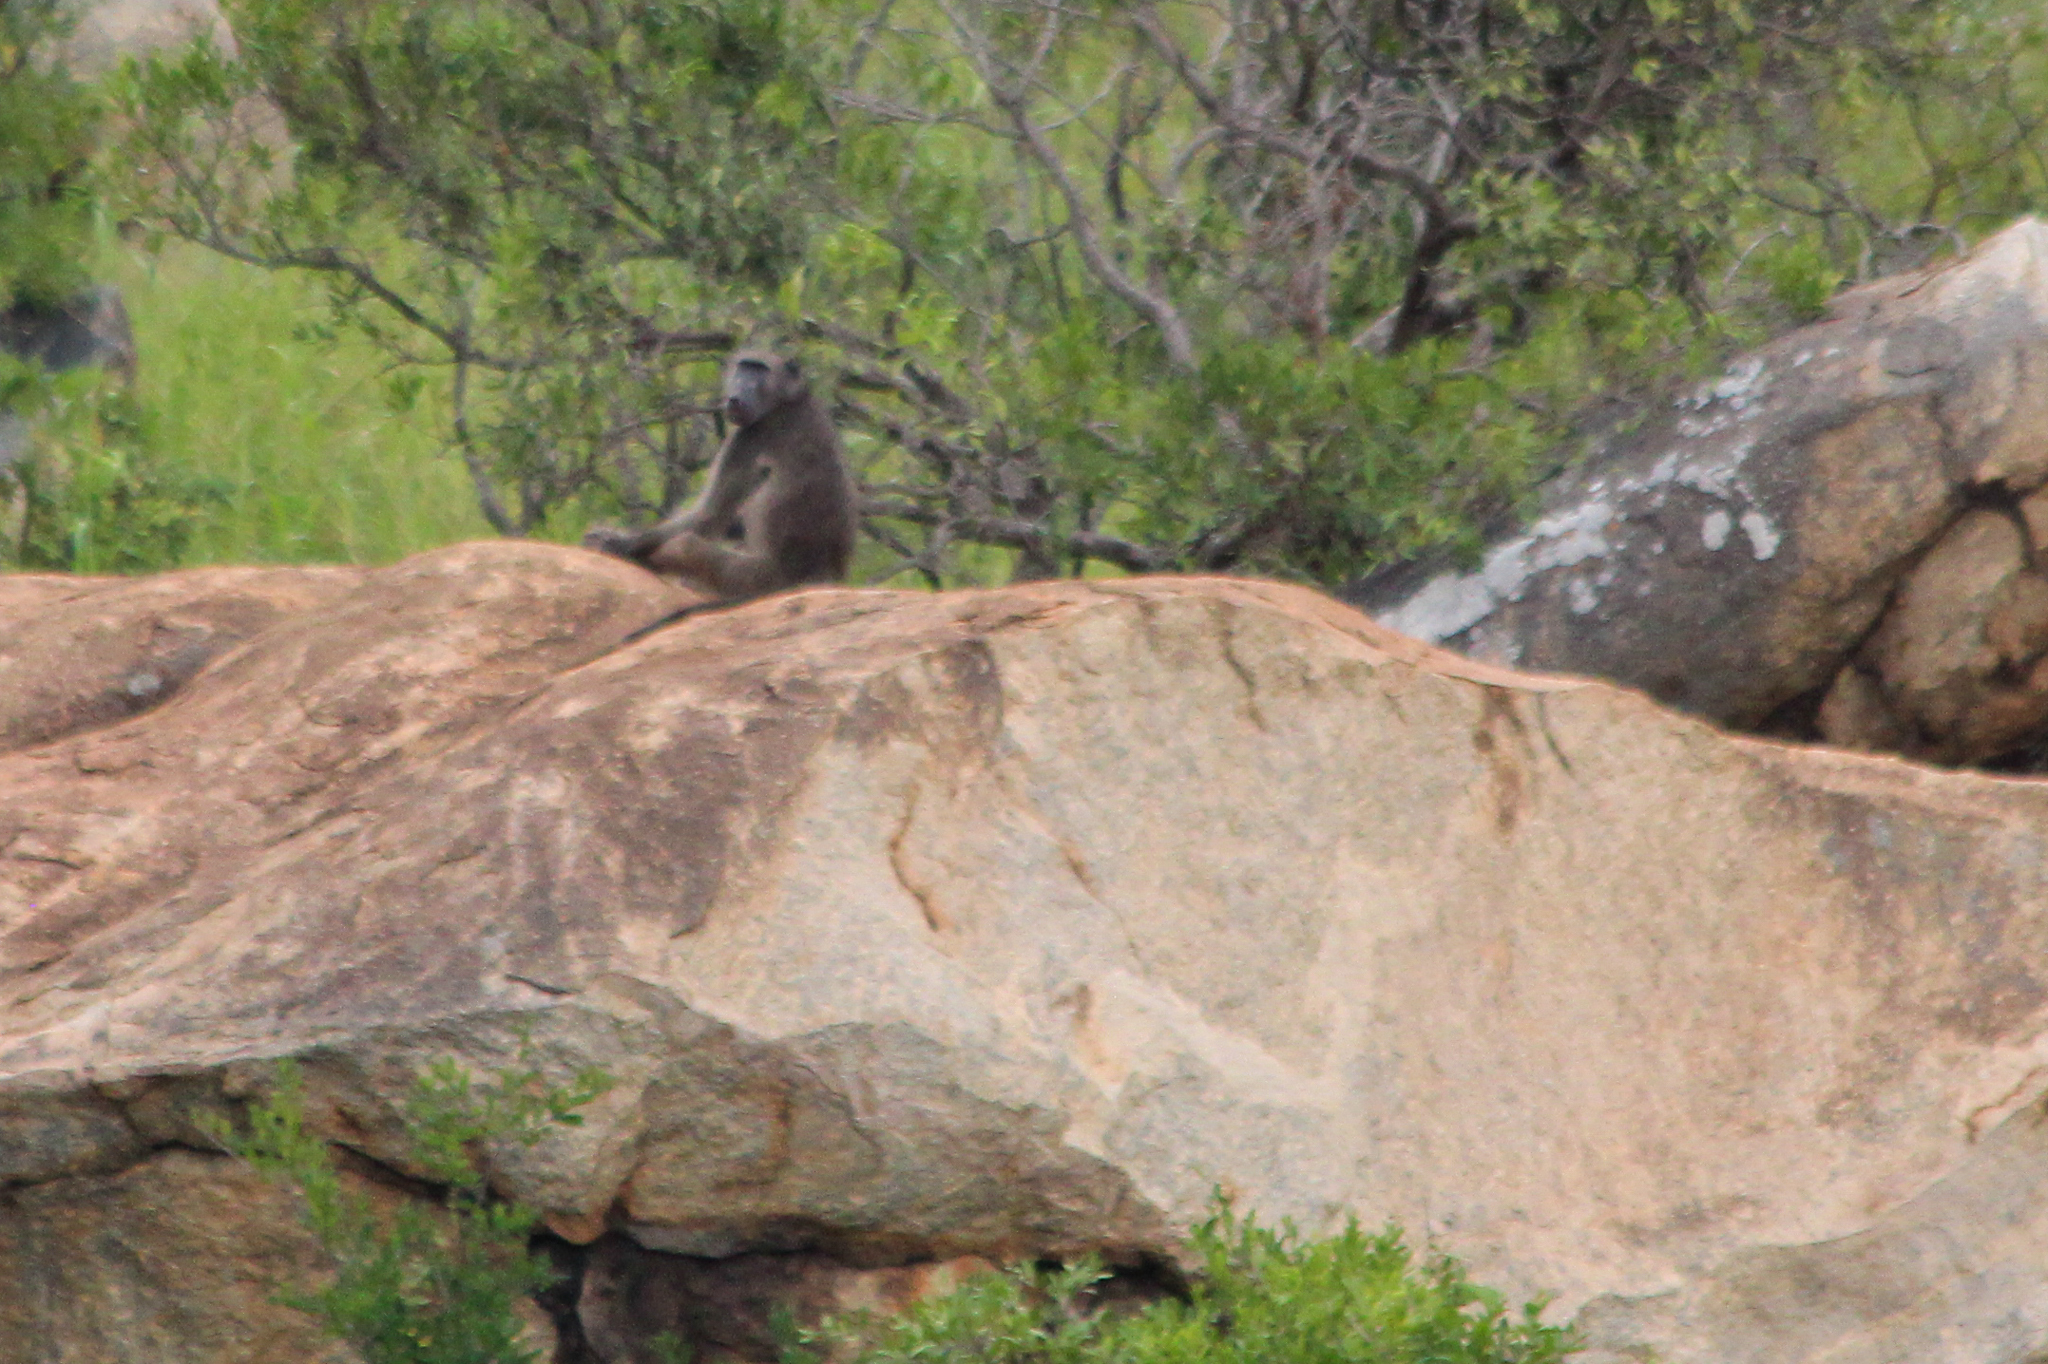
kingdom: Animalia
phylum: Chordata
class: Mammalia
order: Primates
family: Cercopithecidae
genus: Papio
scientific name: Papio ursinus
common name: Chacma baboon
